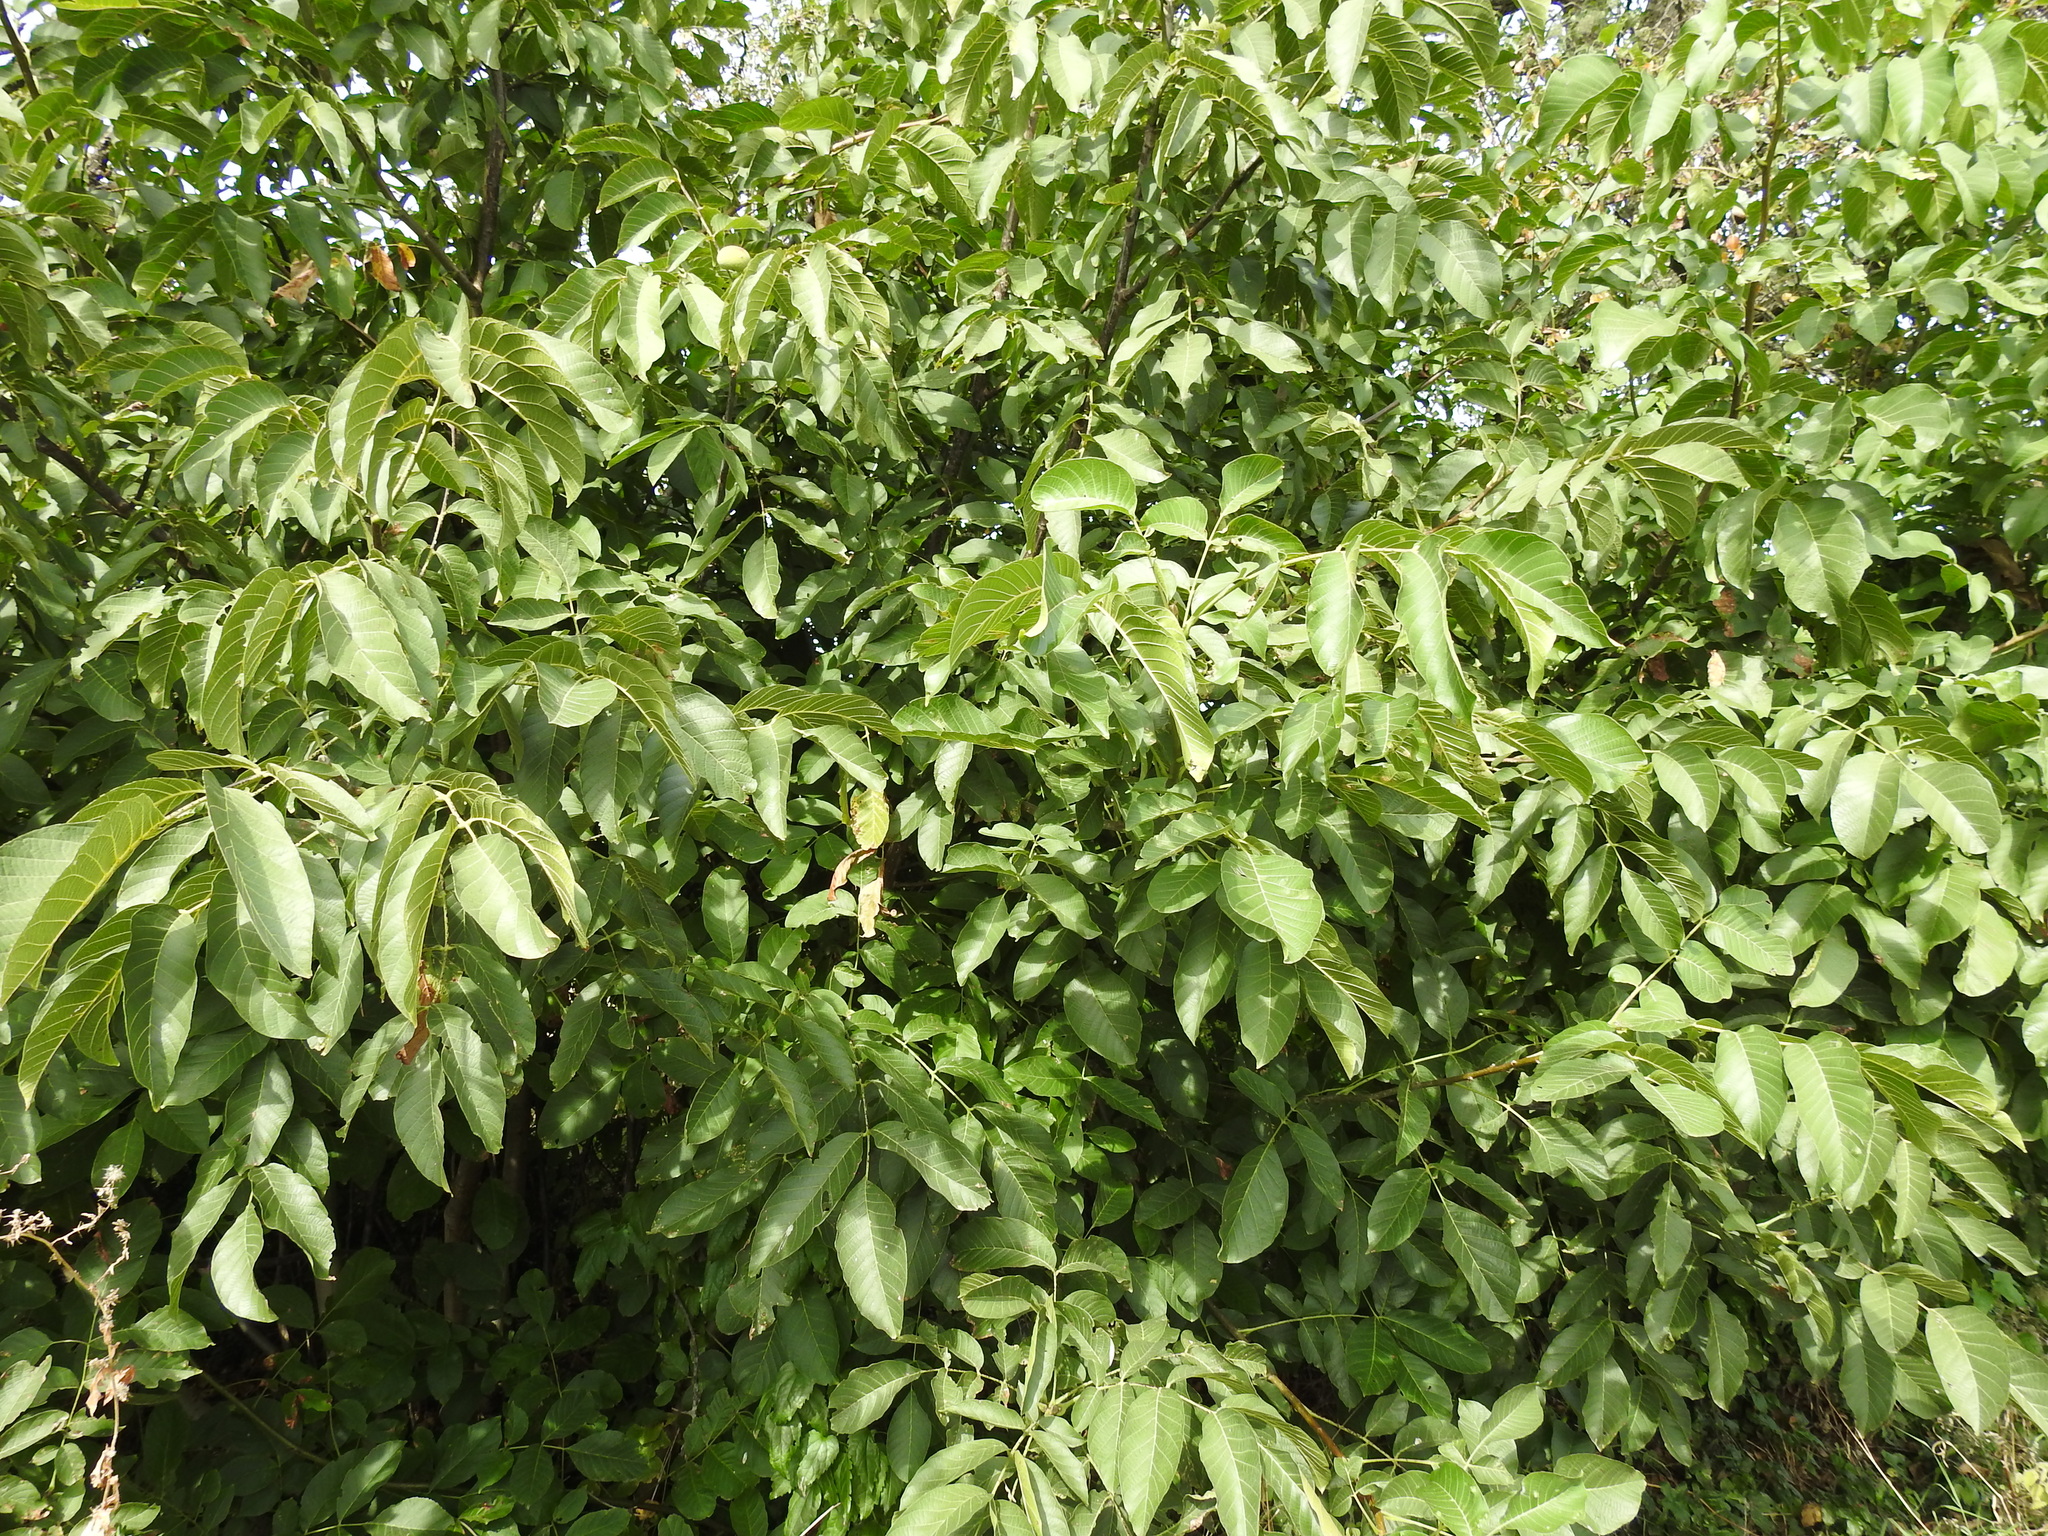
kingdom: Plantae
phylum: Tracheophyta
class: Magnoliopsida
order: Fagales
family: Juglandaceae
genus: Juglans
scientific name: Juglans regia
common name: Walnut
